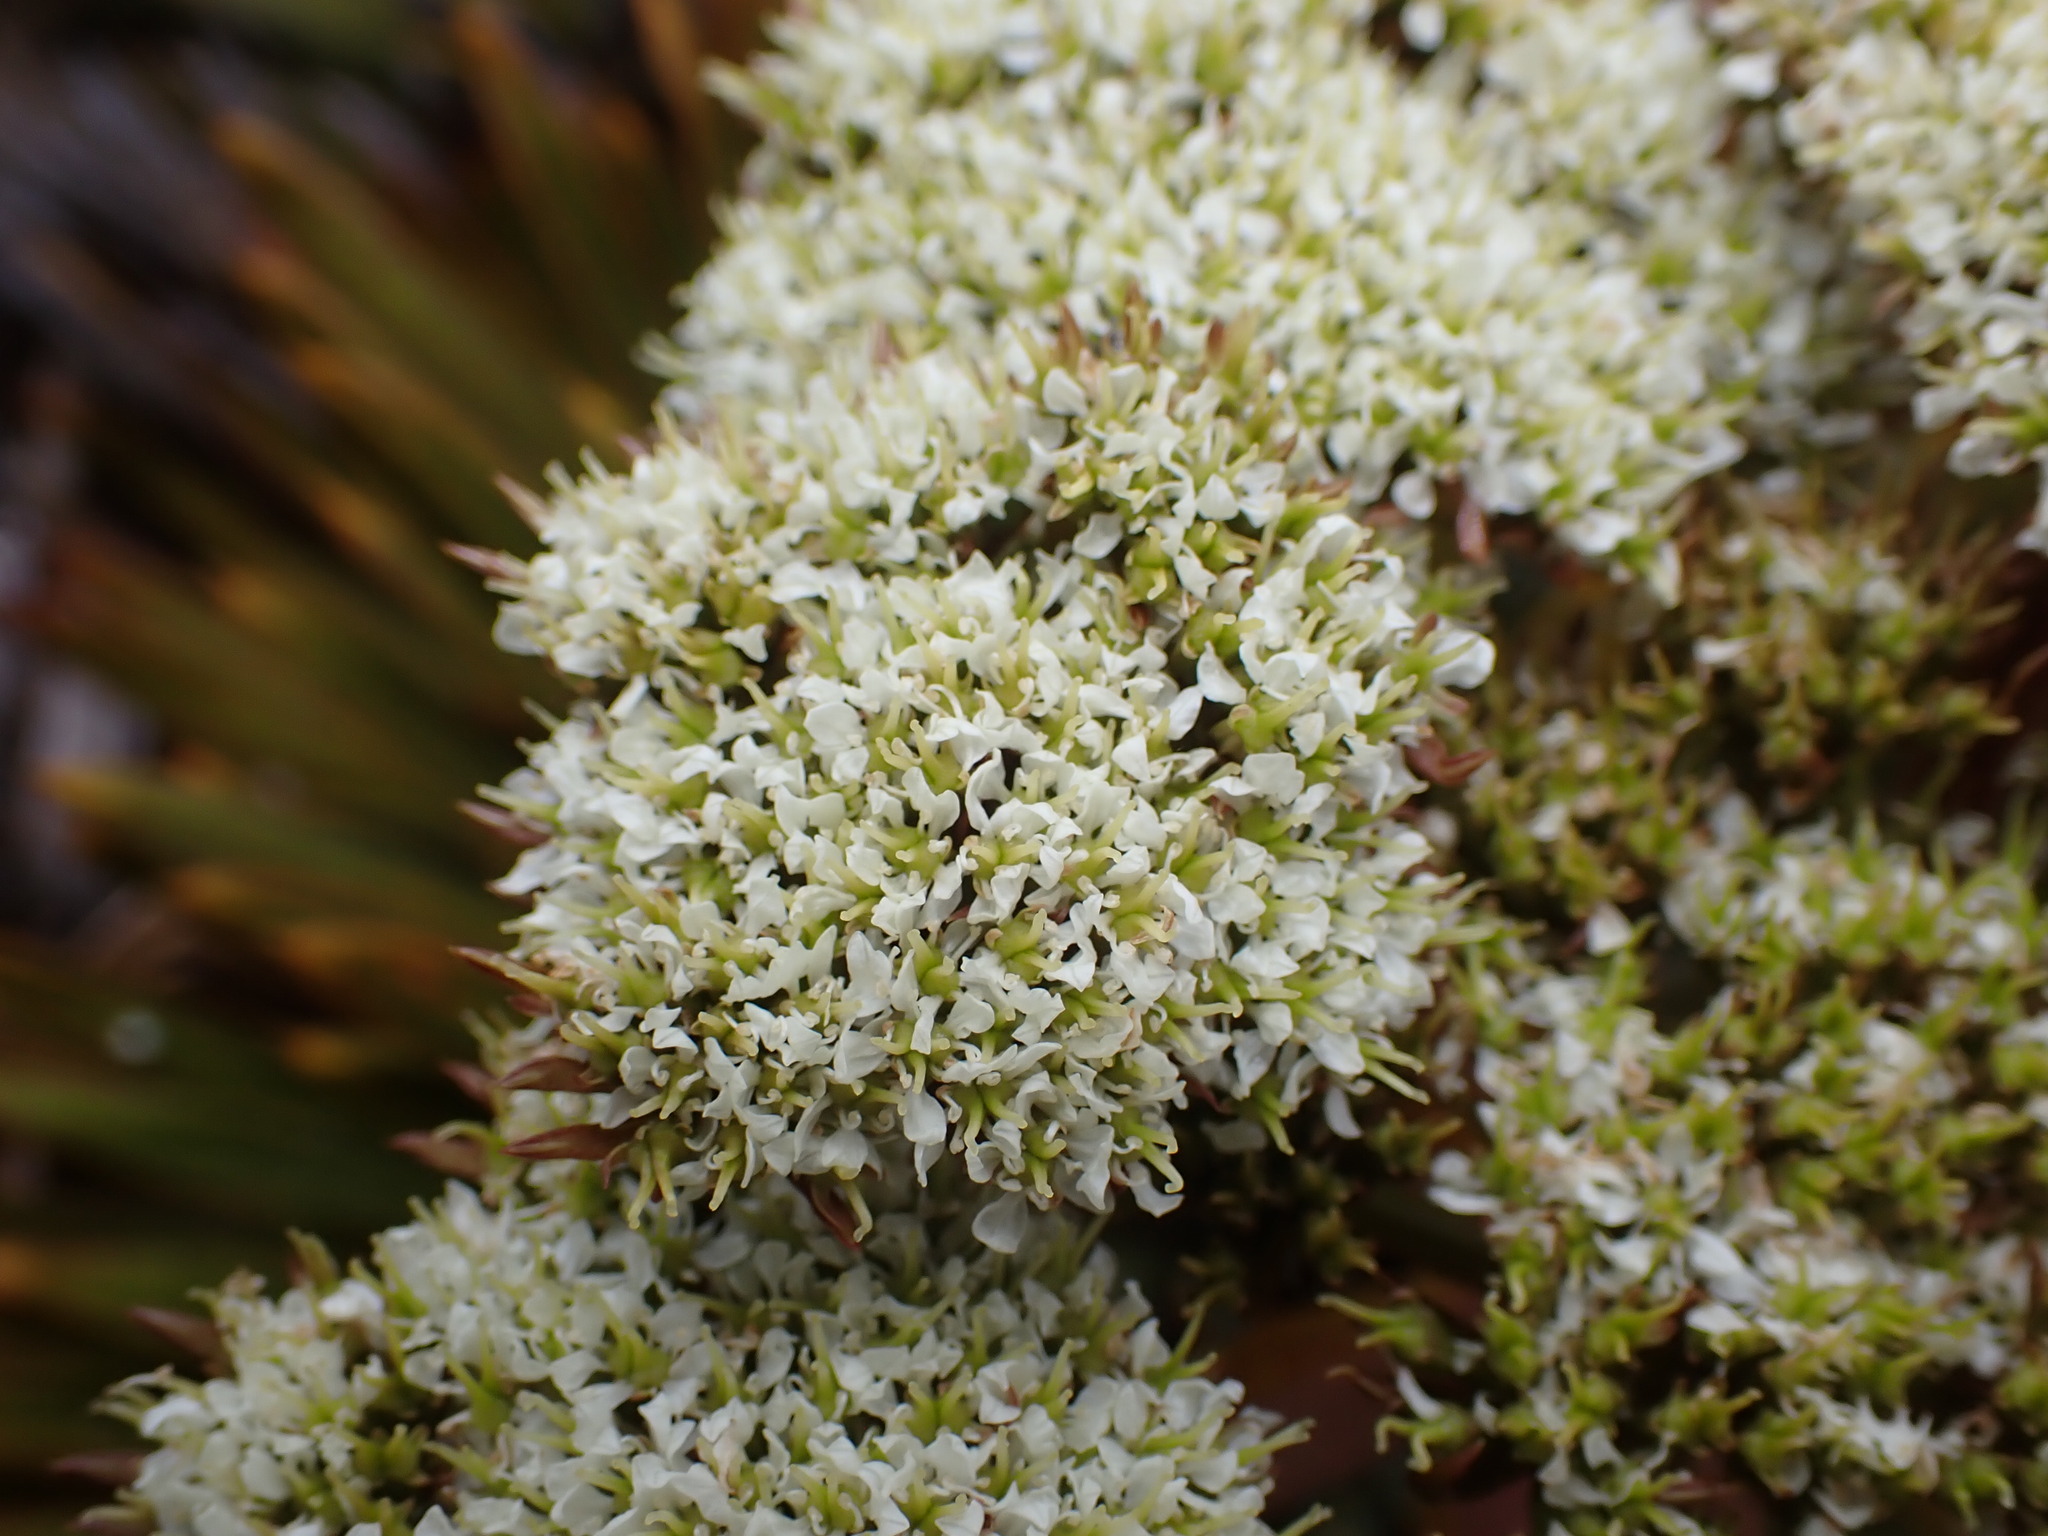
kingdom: Plantae
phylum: Tracheophyta
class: Magnoliopsida
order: Apiales
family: Apiaceae
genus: Aciphylla
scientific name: Aciphylla crosby-smithii
